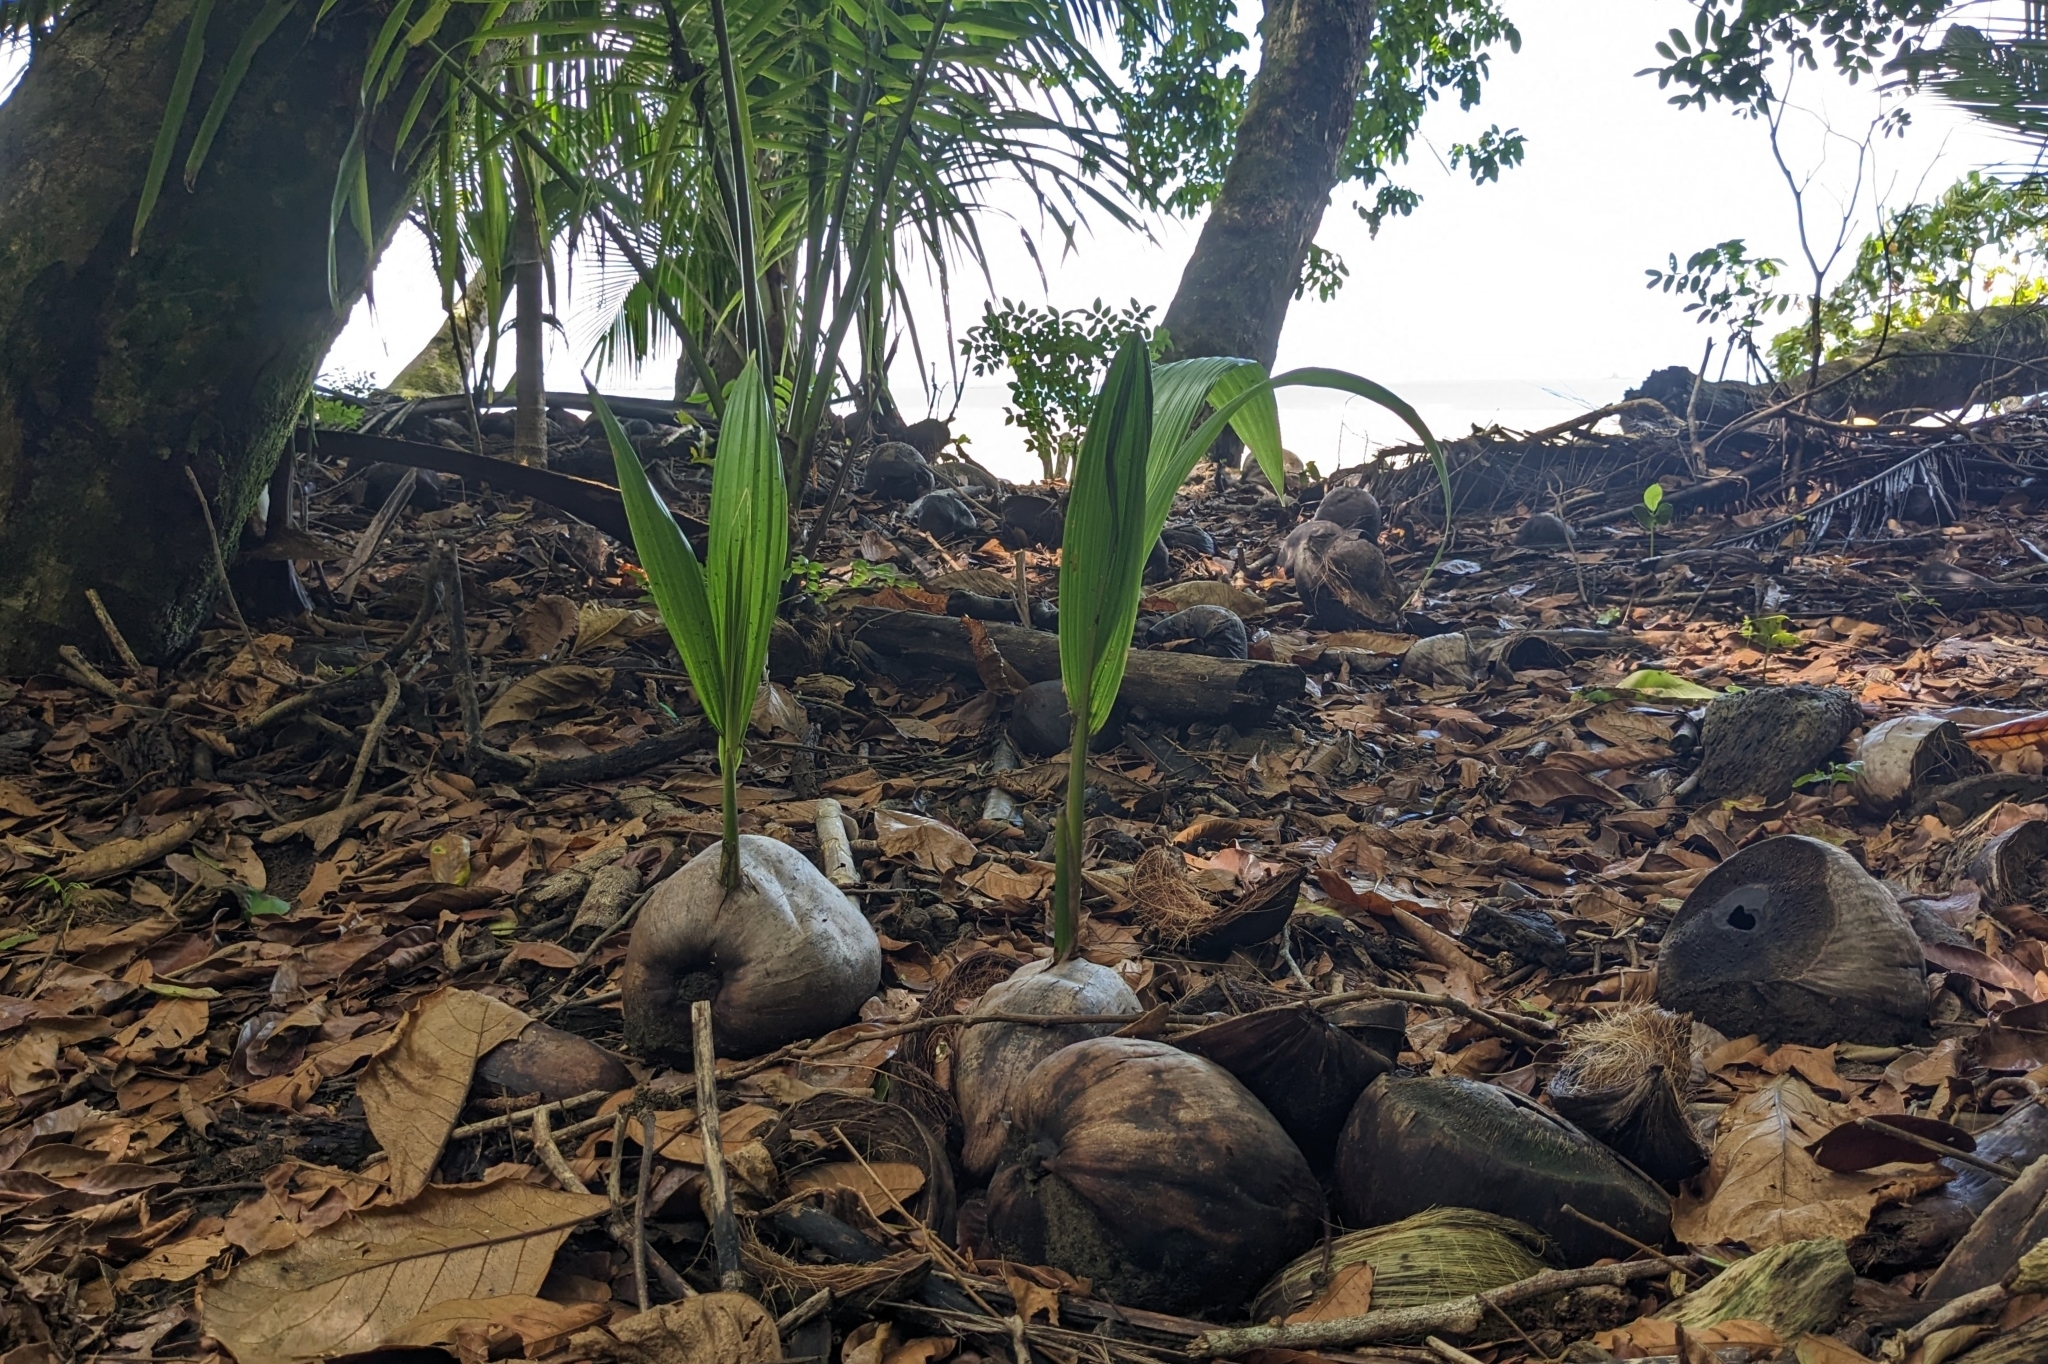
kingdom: Plantae
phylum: Tracheophyta
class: Liliopsida
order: Arecales
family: Arecaceae
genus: Cocos
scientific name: Cocos nucifera
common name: Coconut palm
